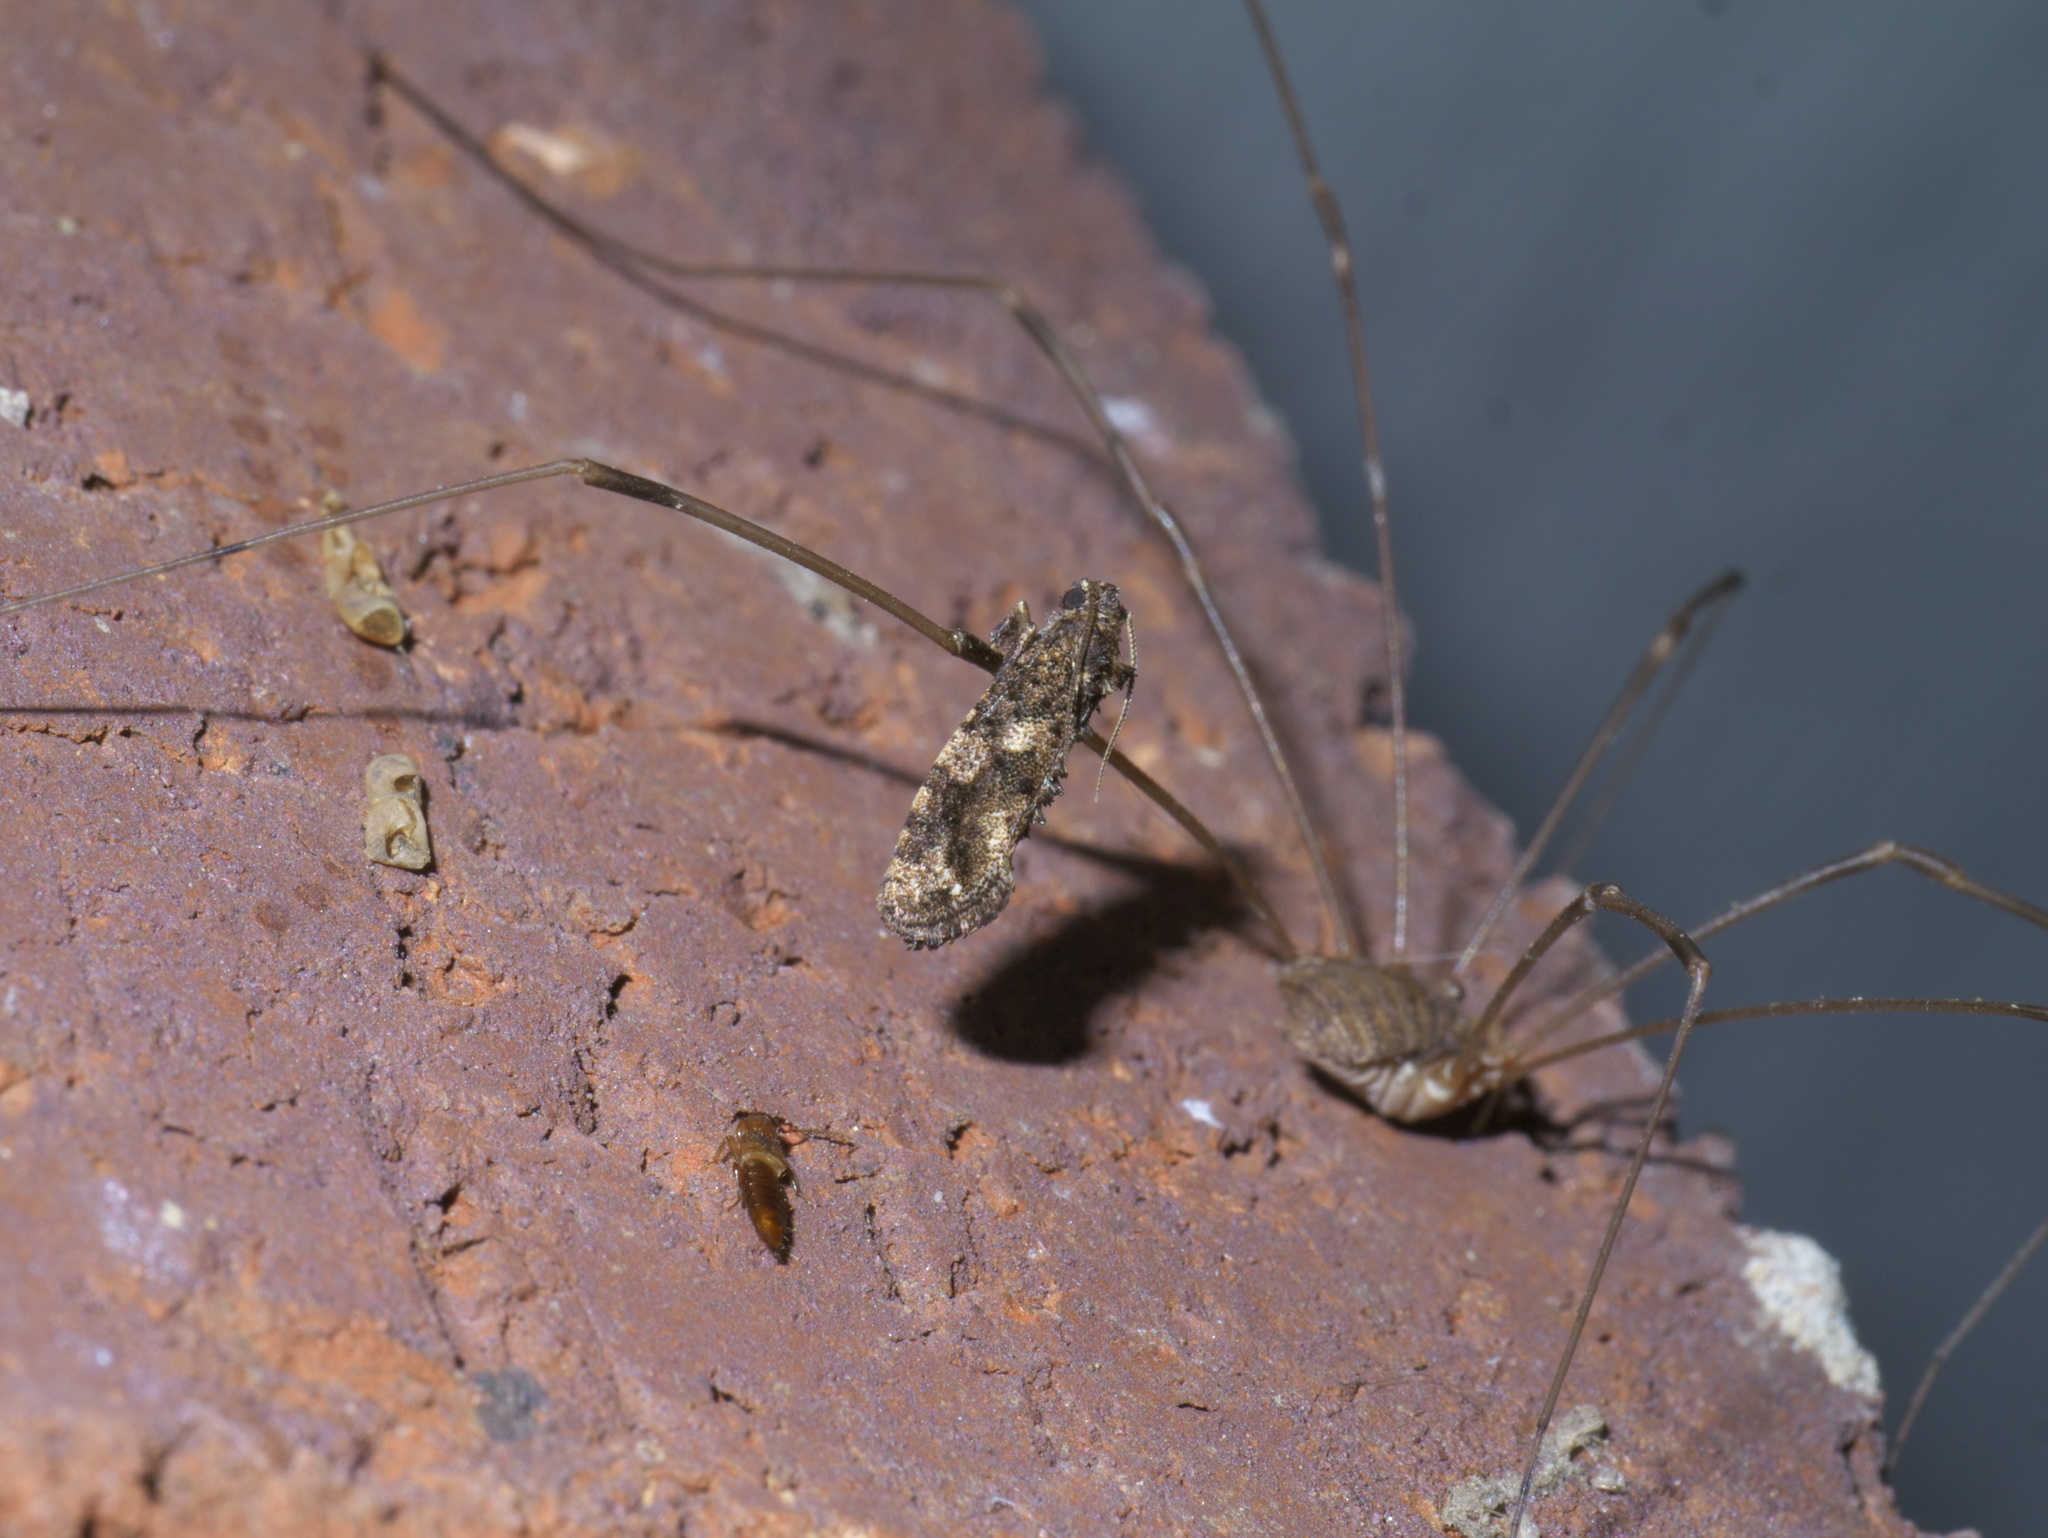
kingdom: Animalia
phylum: Arthropoda
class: Insecta
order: Lepidoptera
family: Tineidae
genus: Acrolophus
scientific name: Acrolophus cressoni
